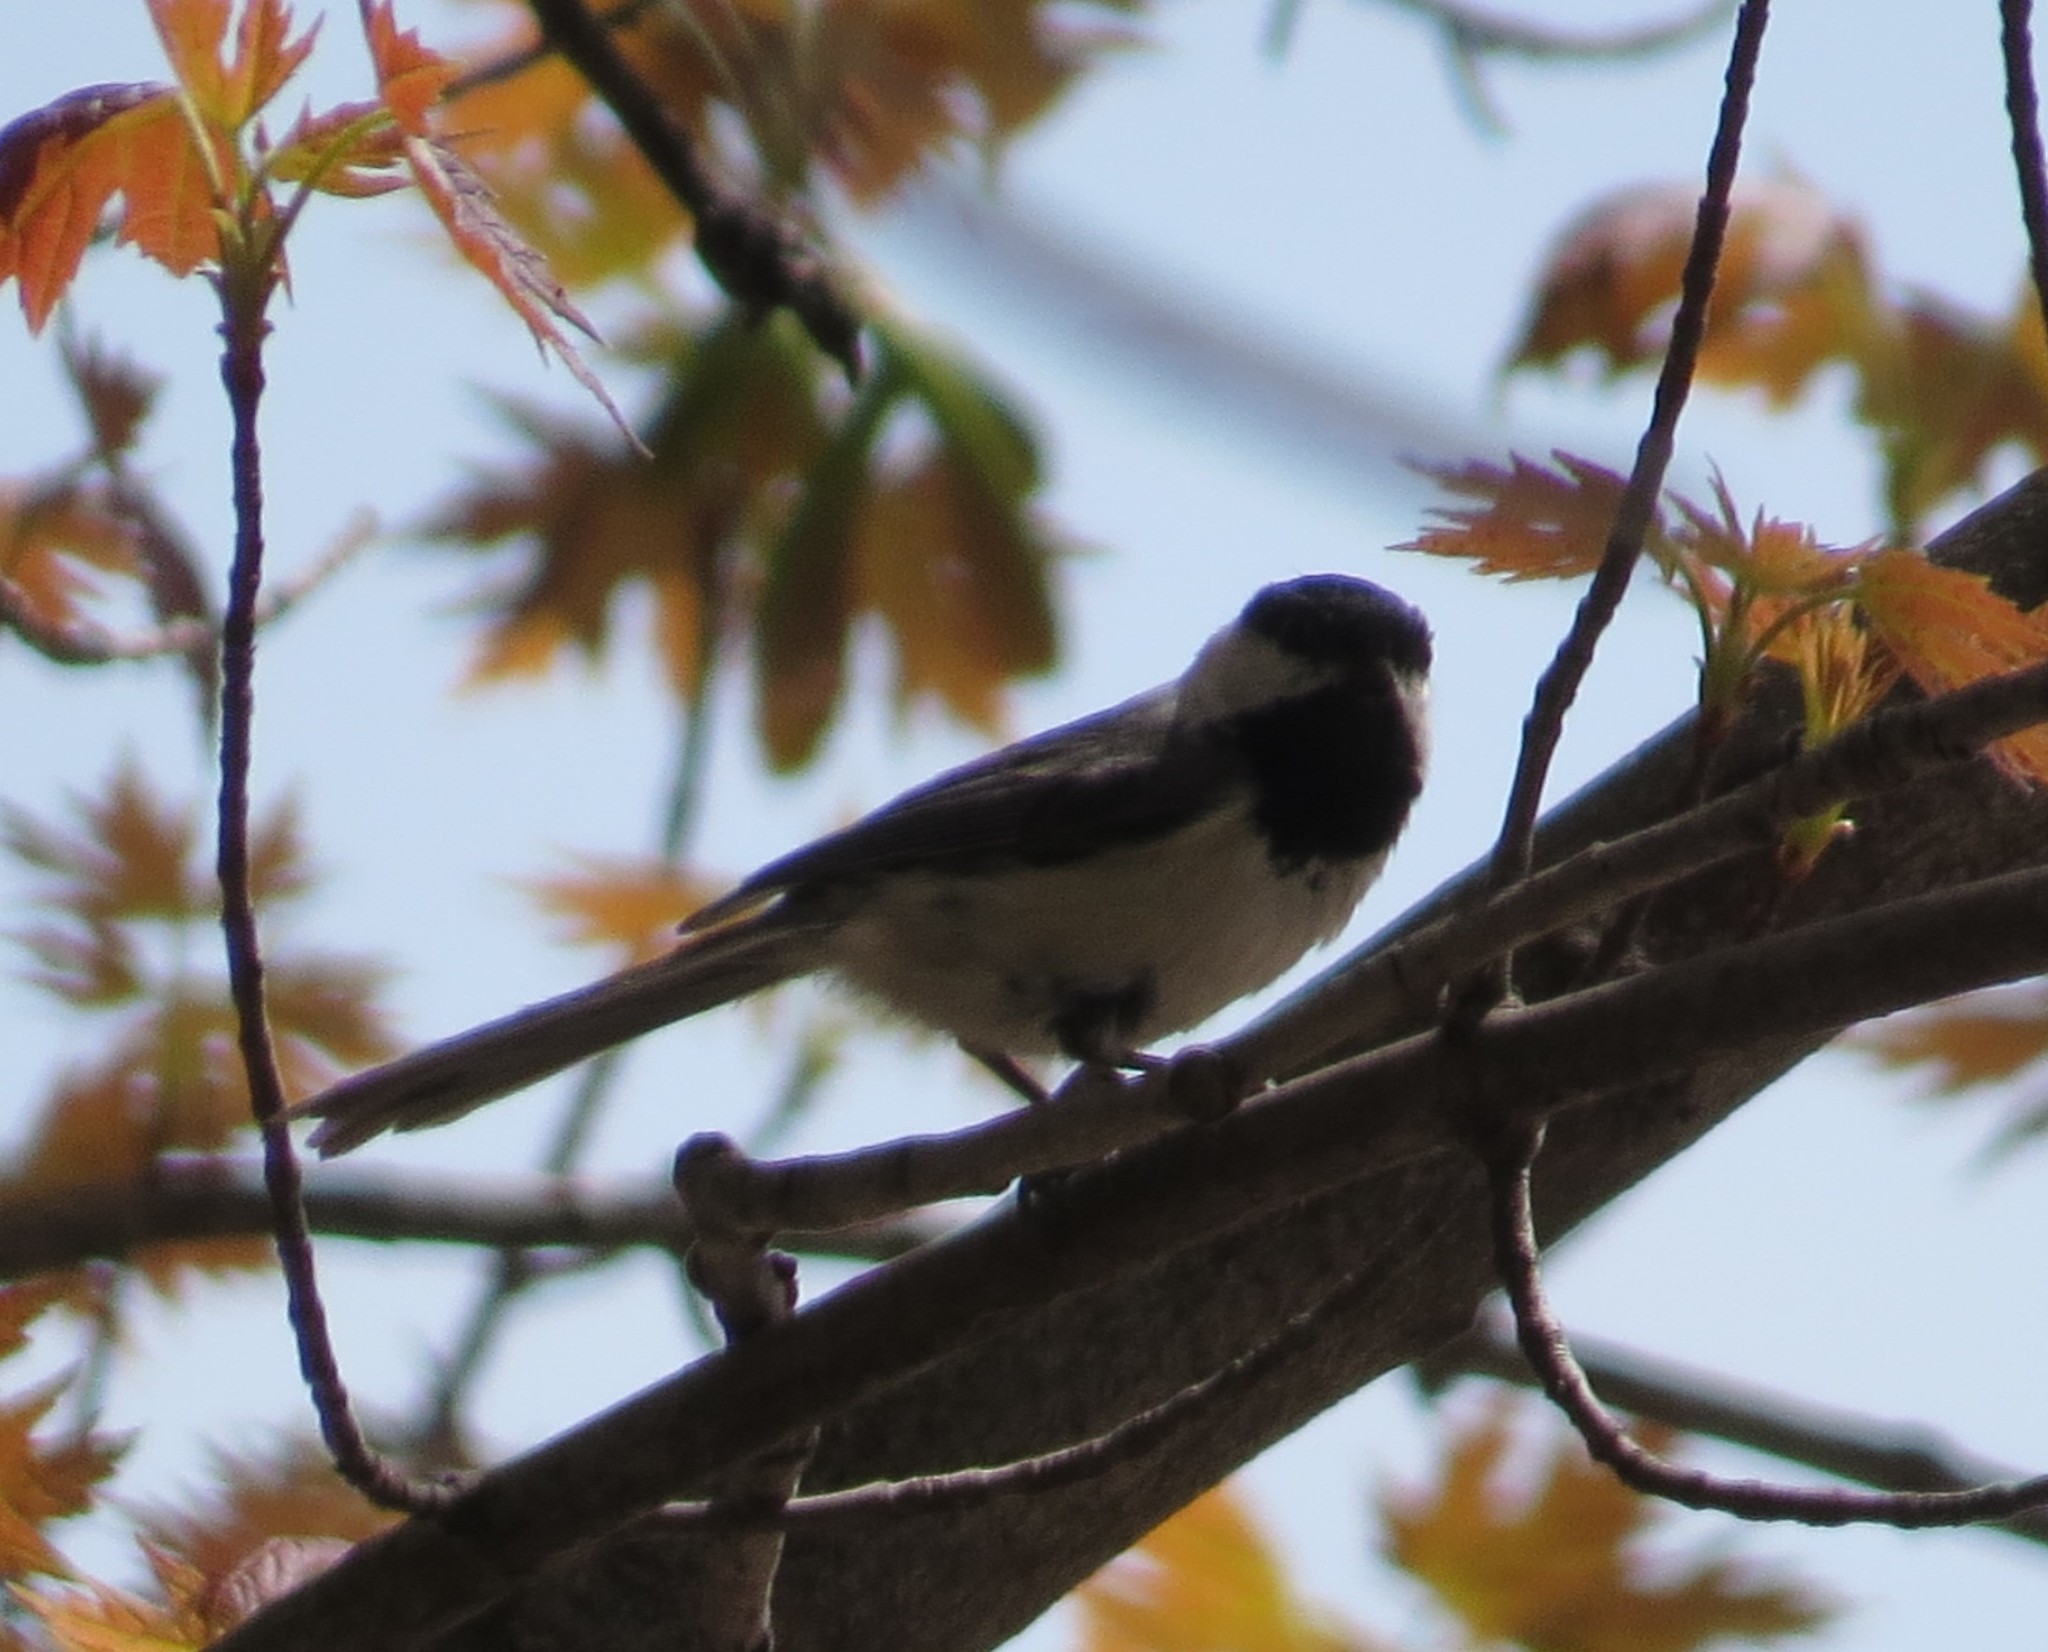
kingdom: Animalia
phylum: Chordata
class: Aves
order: Passeriformes
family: Paridae
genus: Poecile
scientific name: Poecile atricapillus
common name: Black-capped chickadee
